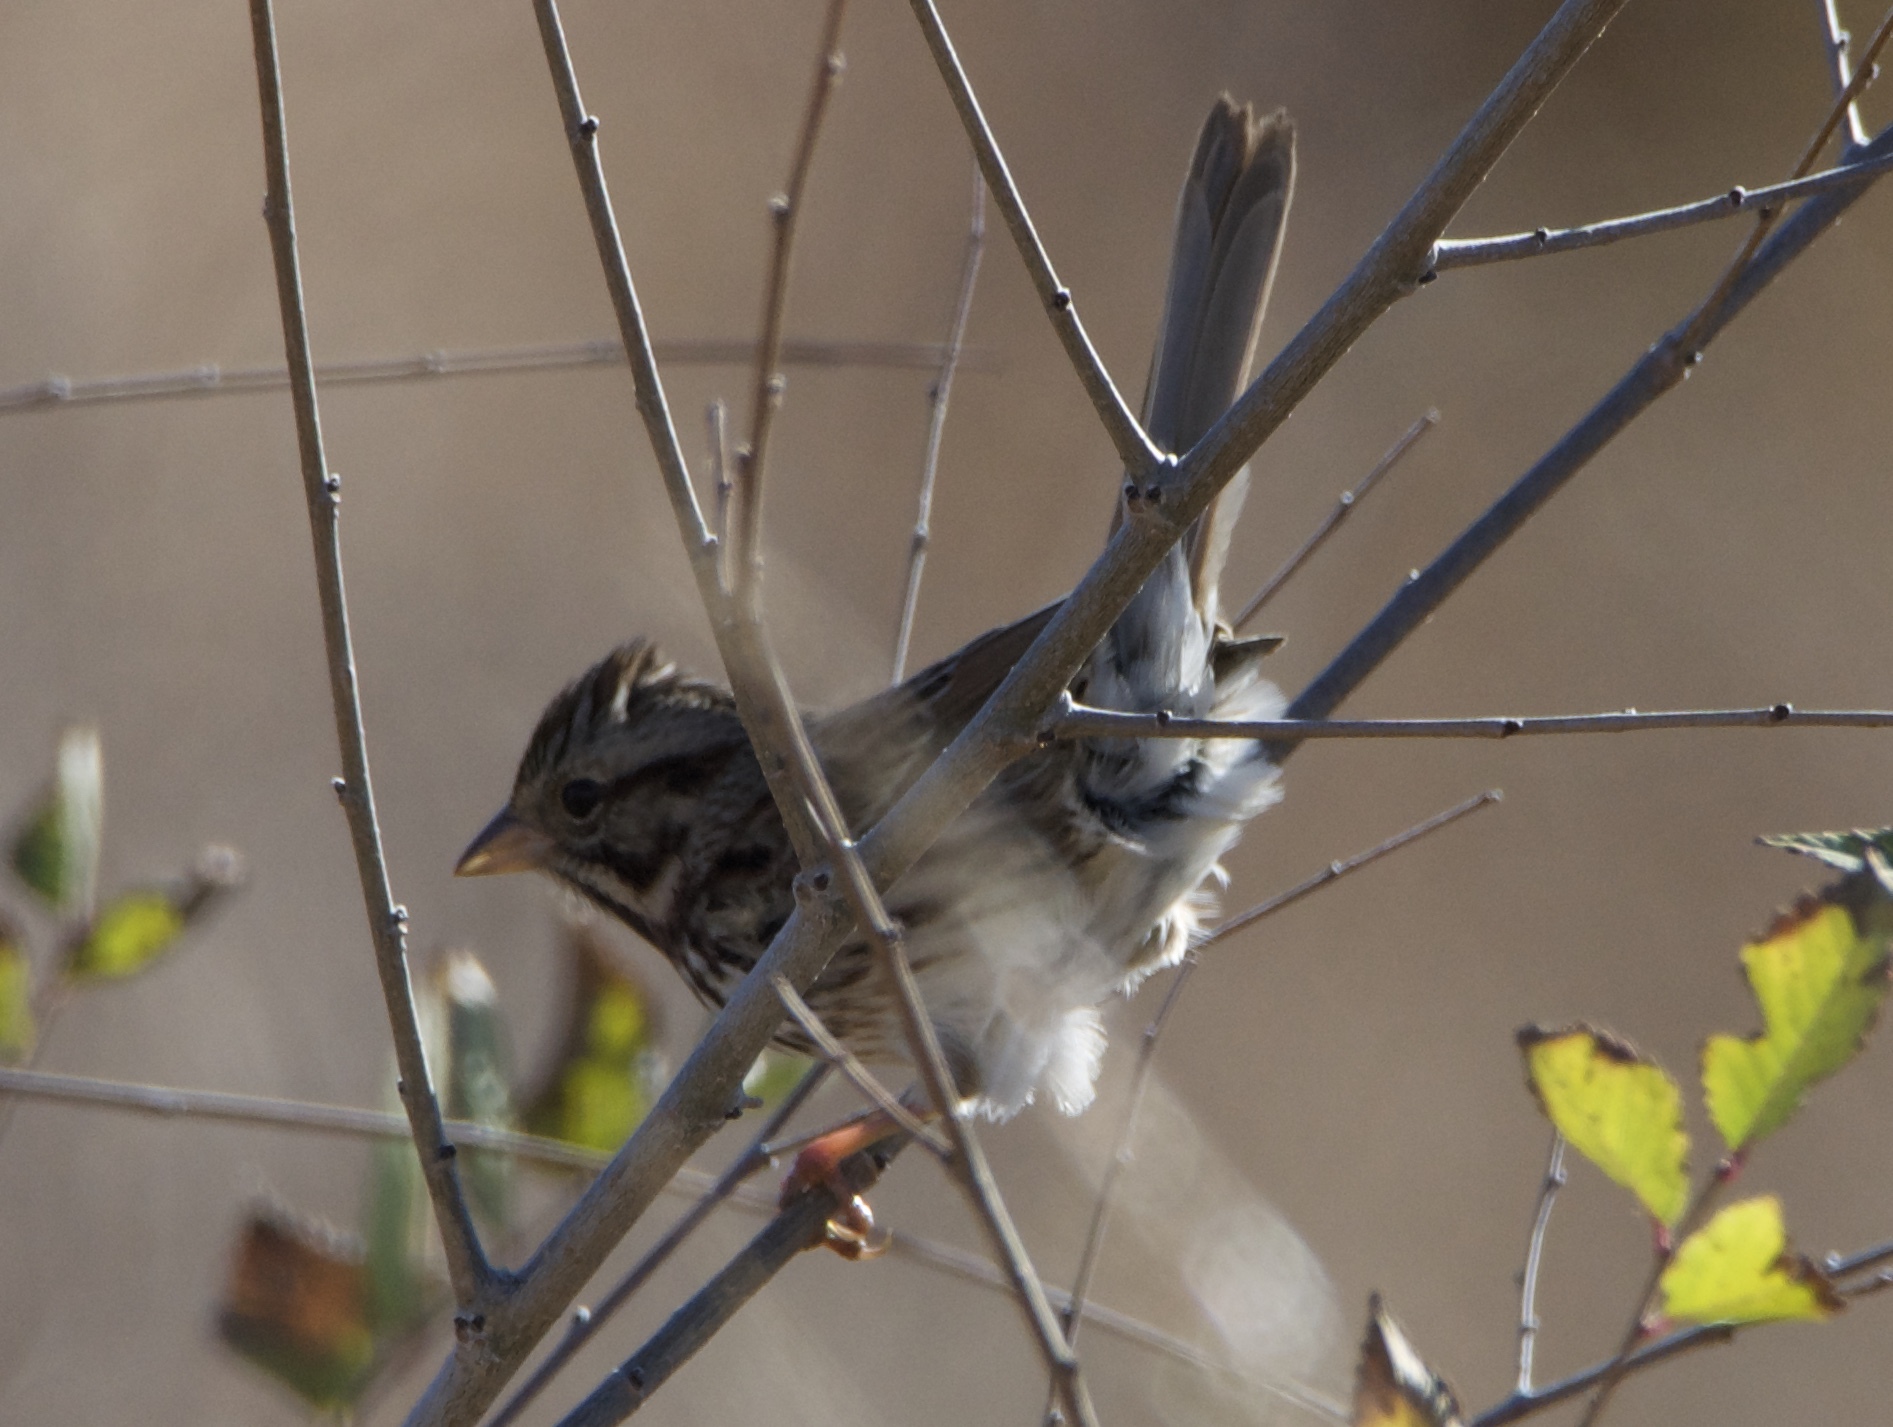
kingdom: Animalia
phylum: Chordata
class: Aves
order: Passeriformes
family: Passerellidae
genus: Melospiza
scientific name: Melospiza melodia
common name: Song sparrow
